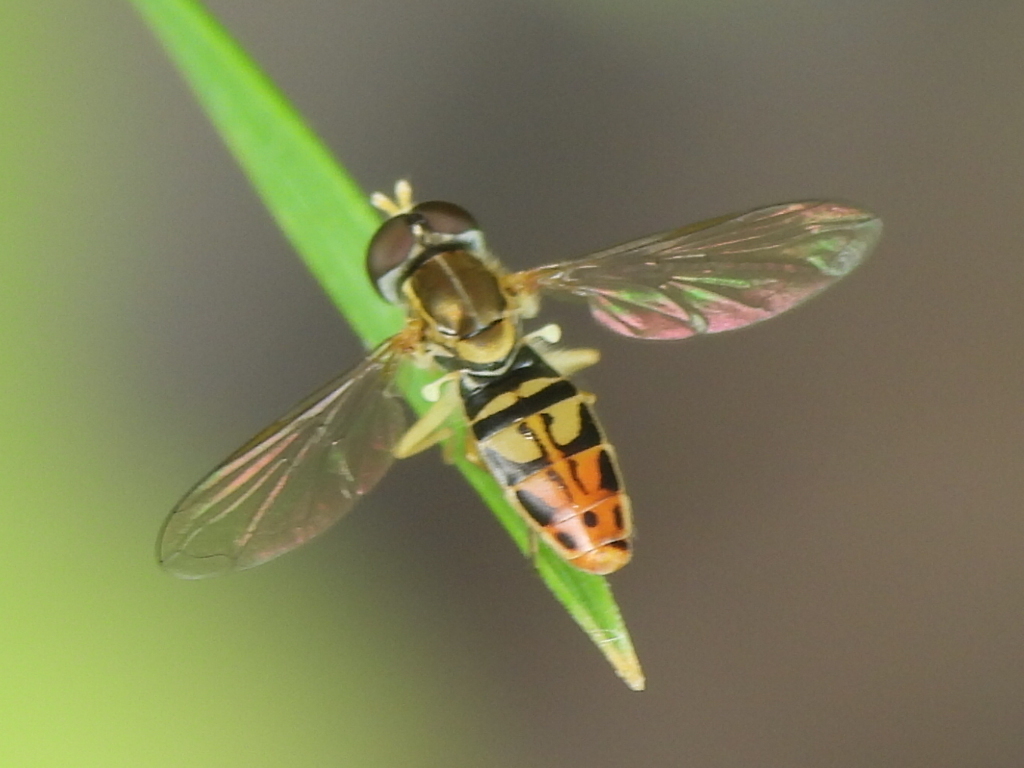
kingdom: Animalia
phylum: Arthropoda
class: Insecta
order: Diptera
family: Syrphidae
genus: Toxomerus
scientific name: Toxomerus marginatus
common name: Syrphid fly
